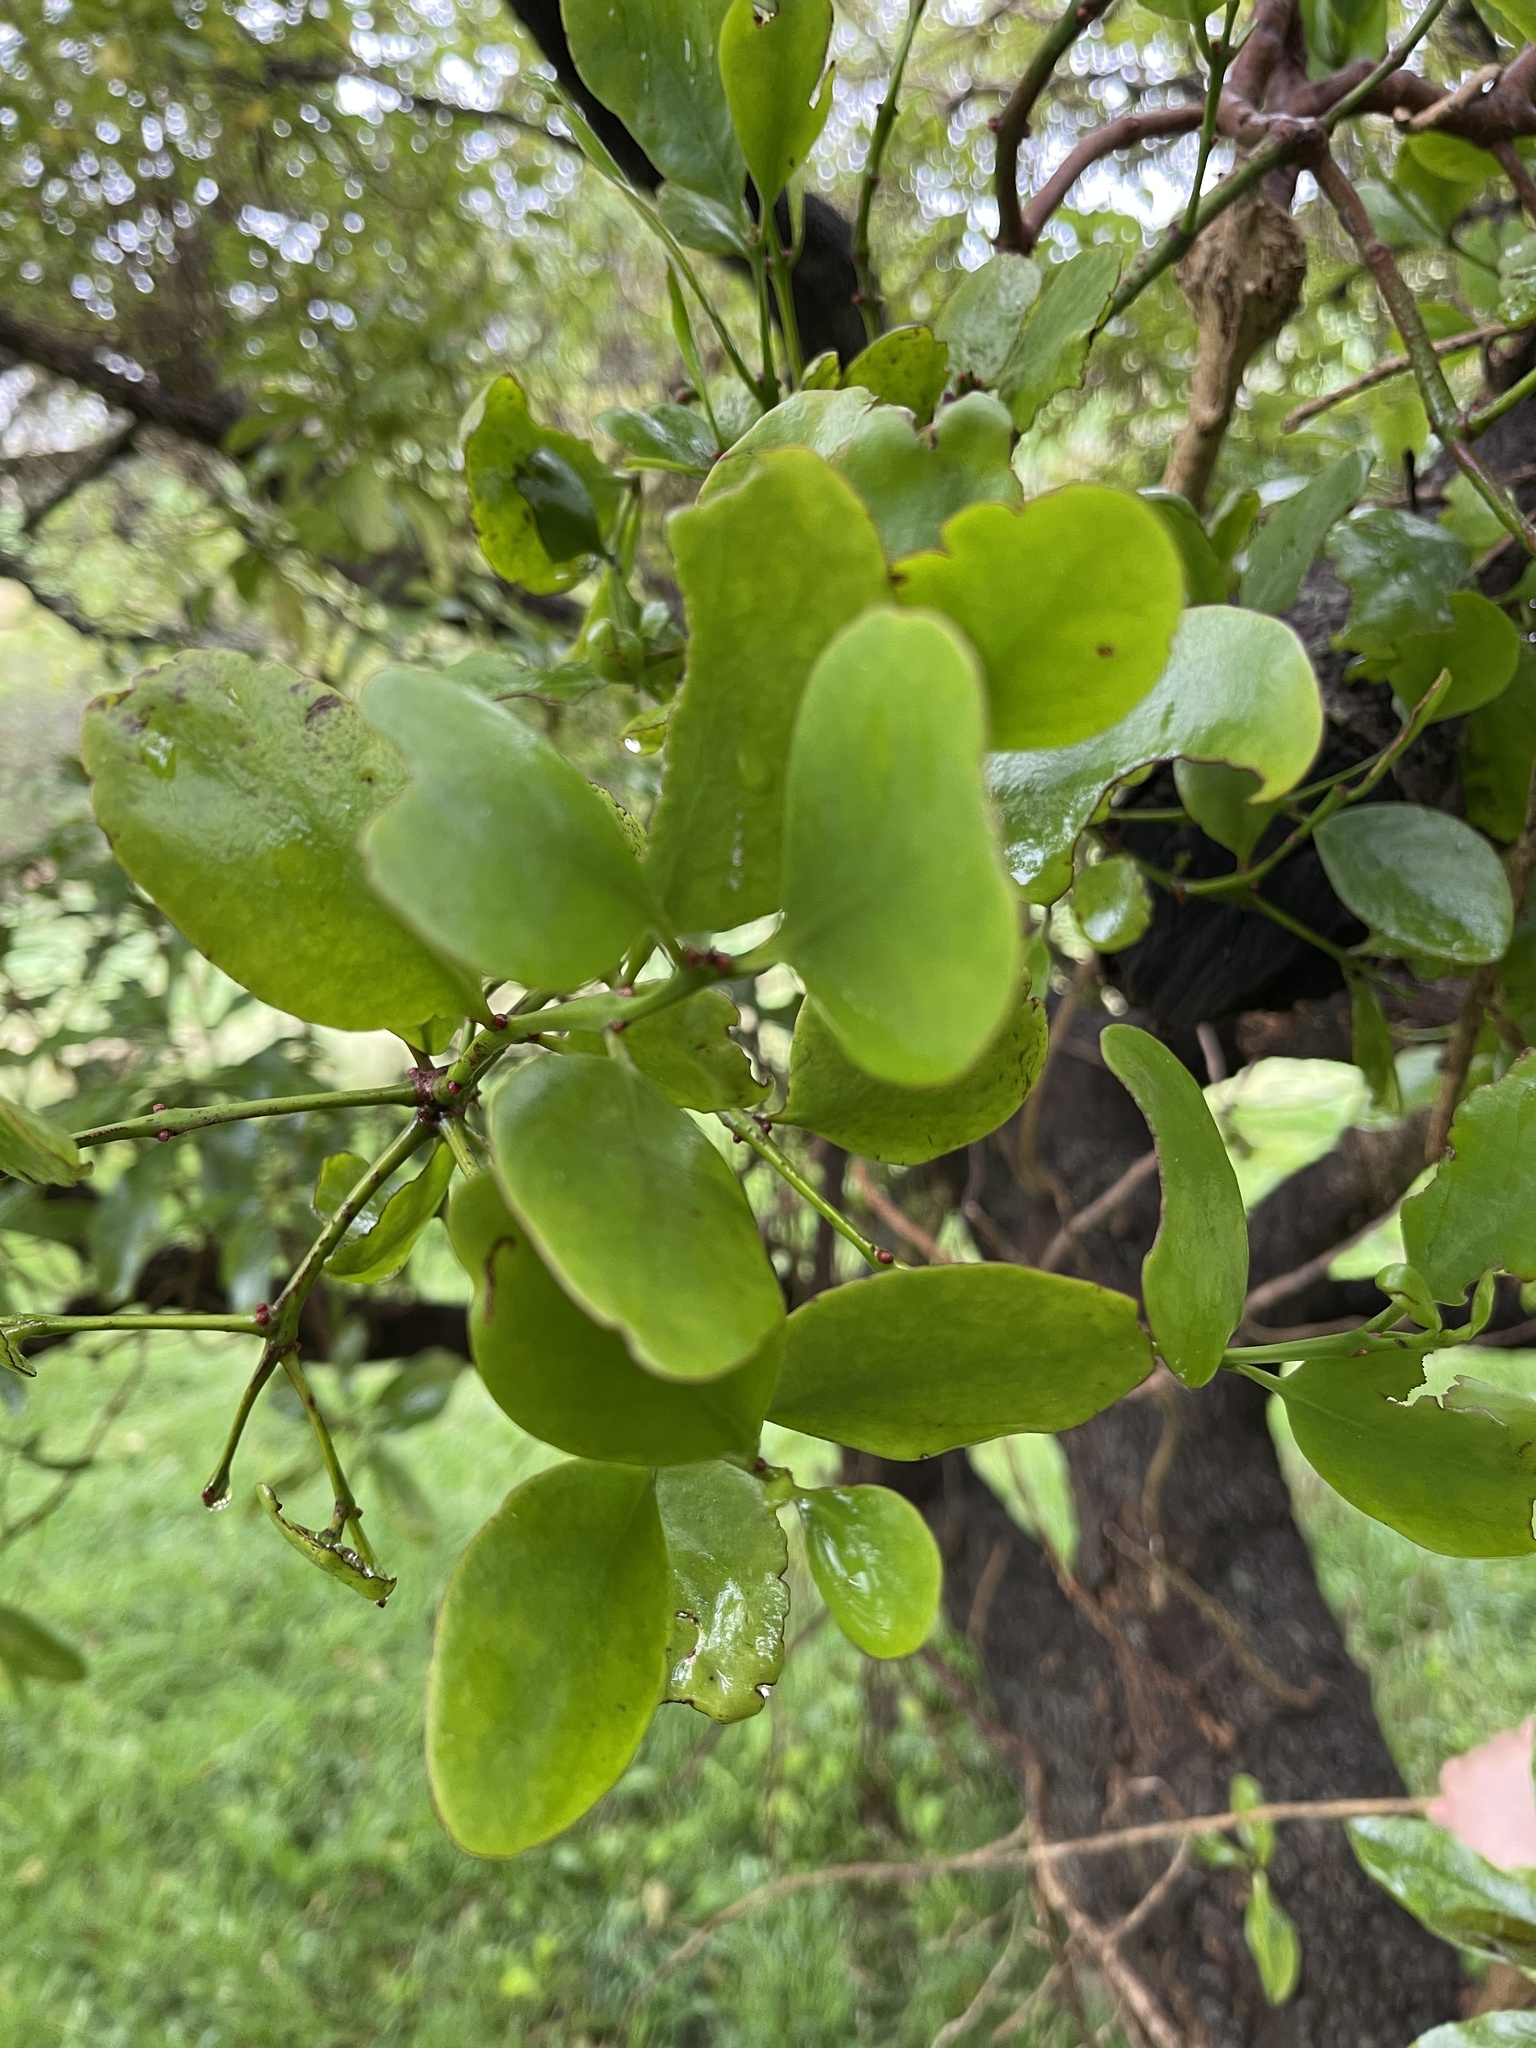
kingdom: Plantae
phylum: Tracheophyta
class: Magnoliopsida
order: Santalales
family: Loranthaceae
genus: Ileostylus
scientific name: Ileostylus micranthus
